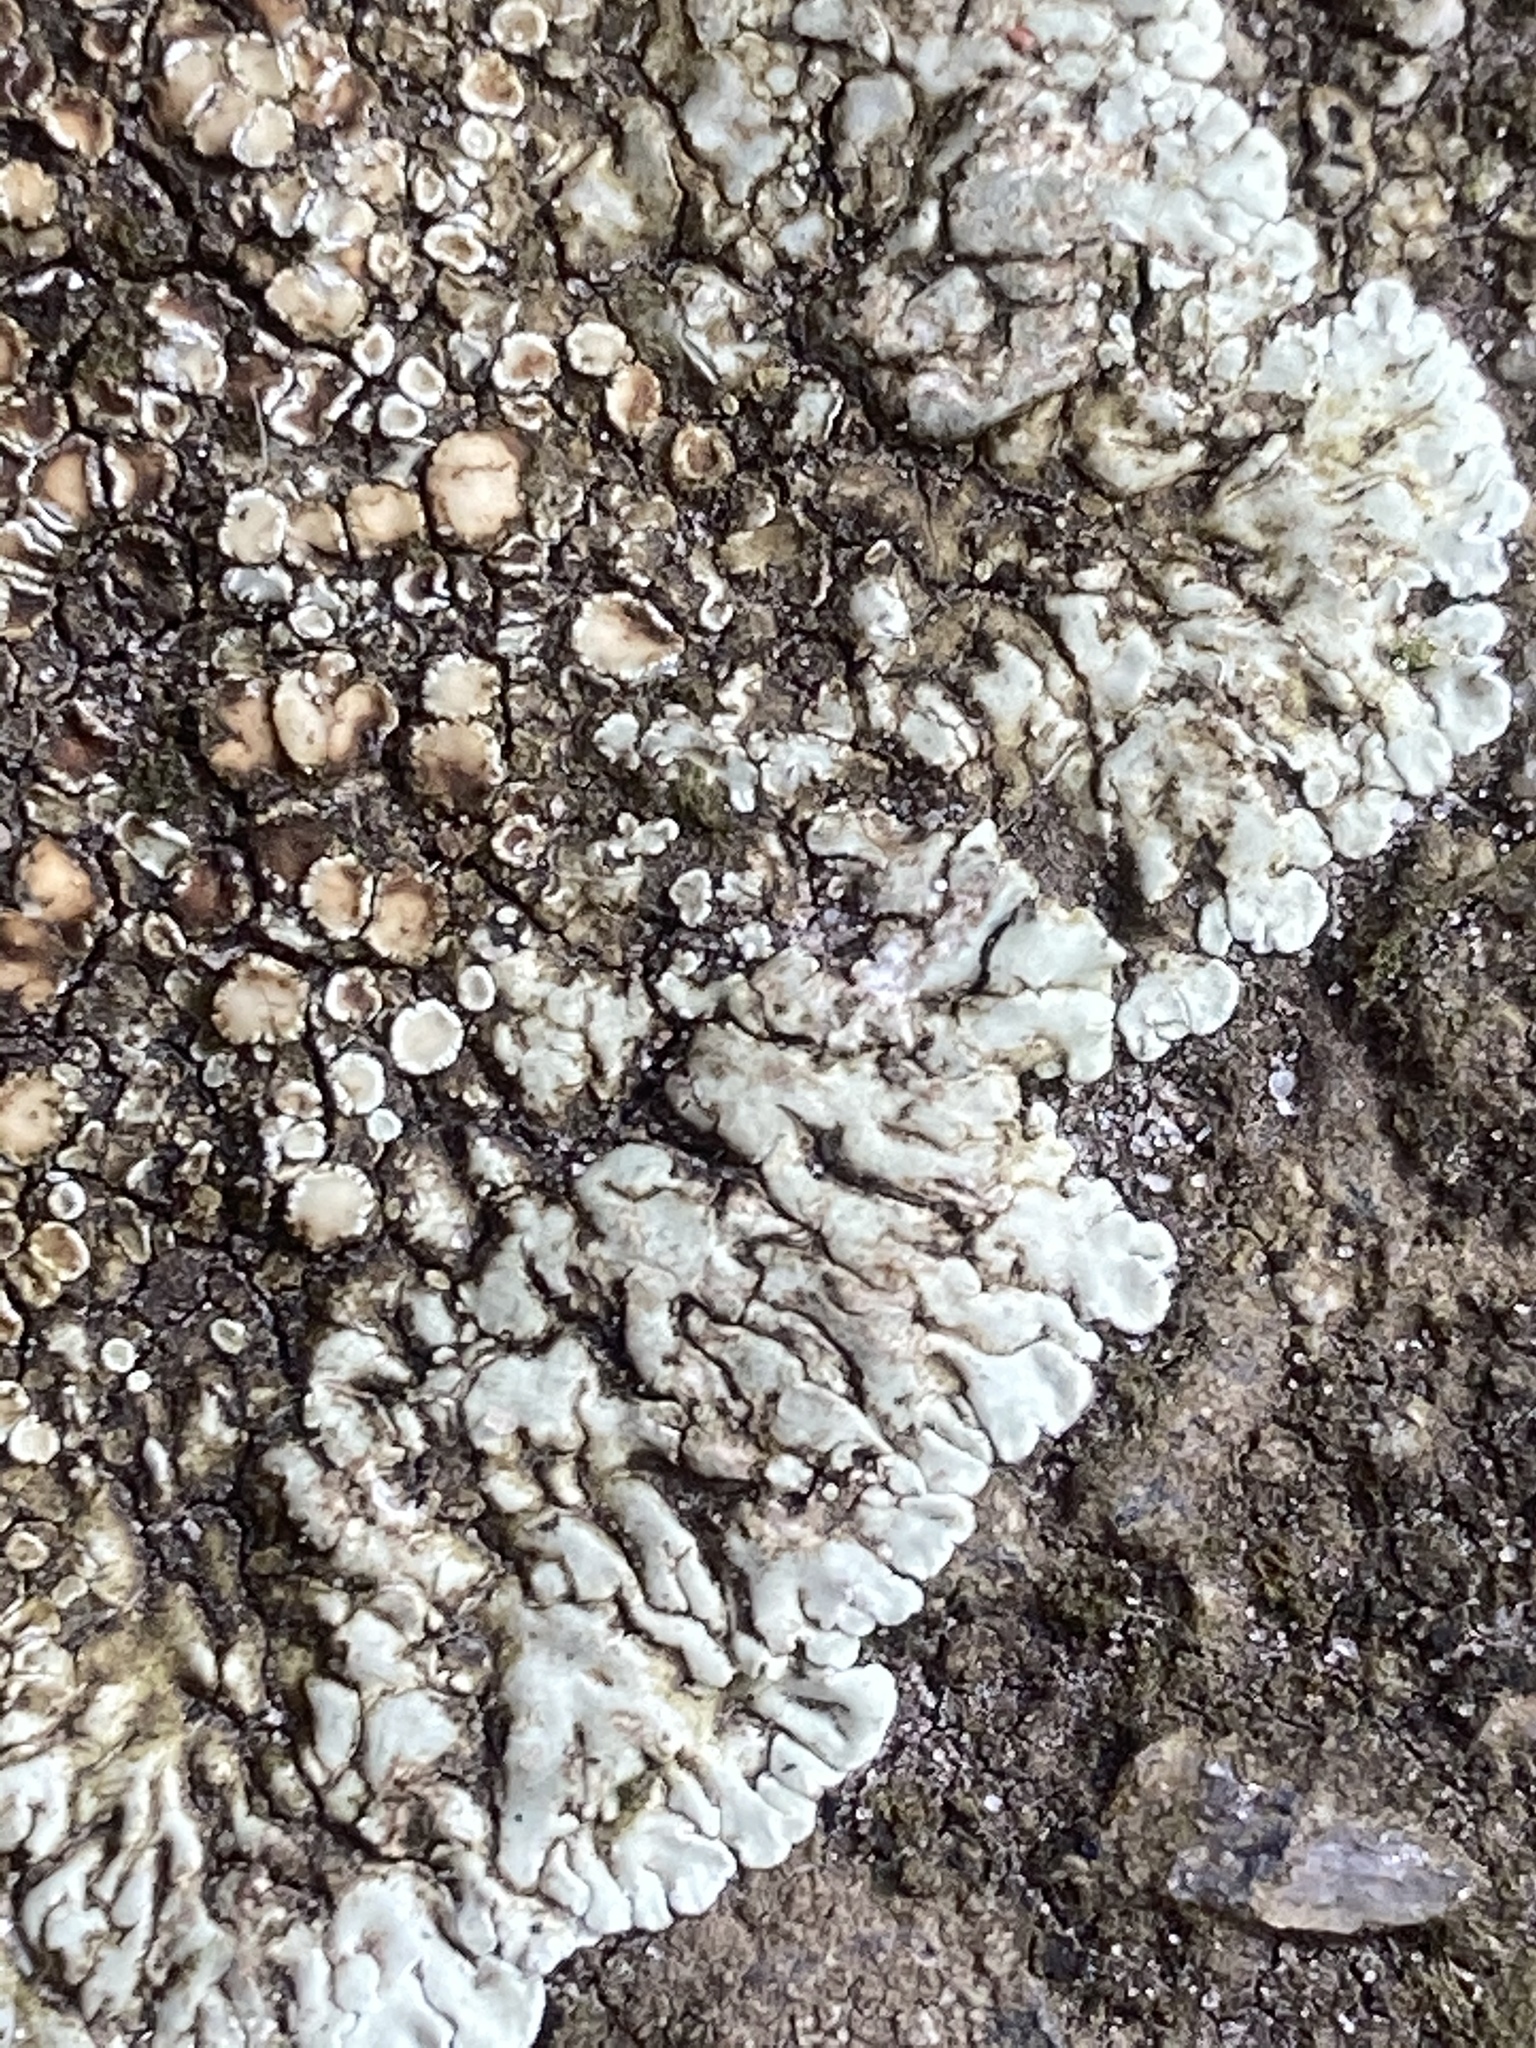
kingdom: Fungi
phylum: Ascomycota
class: Lecanoromycetes
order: Lecanorales
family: Lecanoraceae
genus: Protoparmeliopsis
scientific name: Protoparmeliopsis muralis
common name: Stonewall rim lichen
